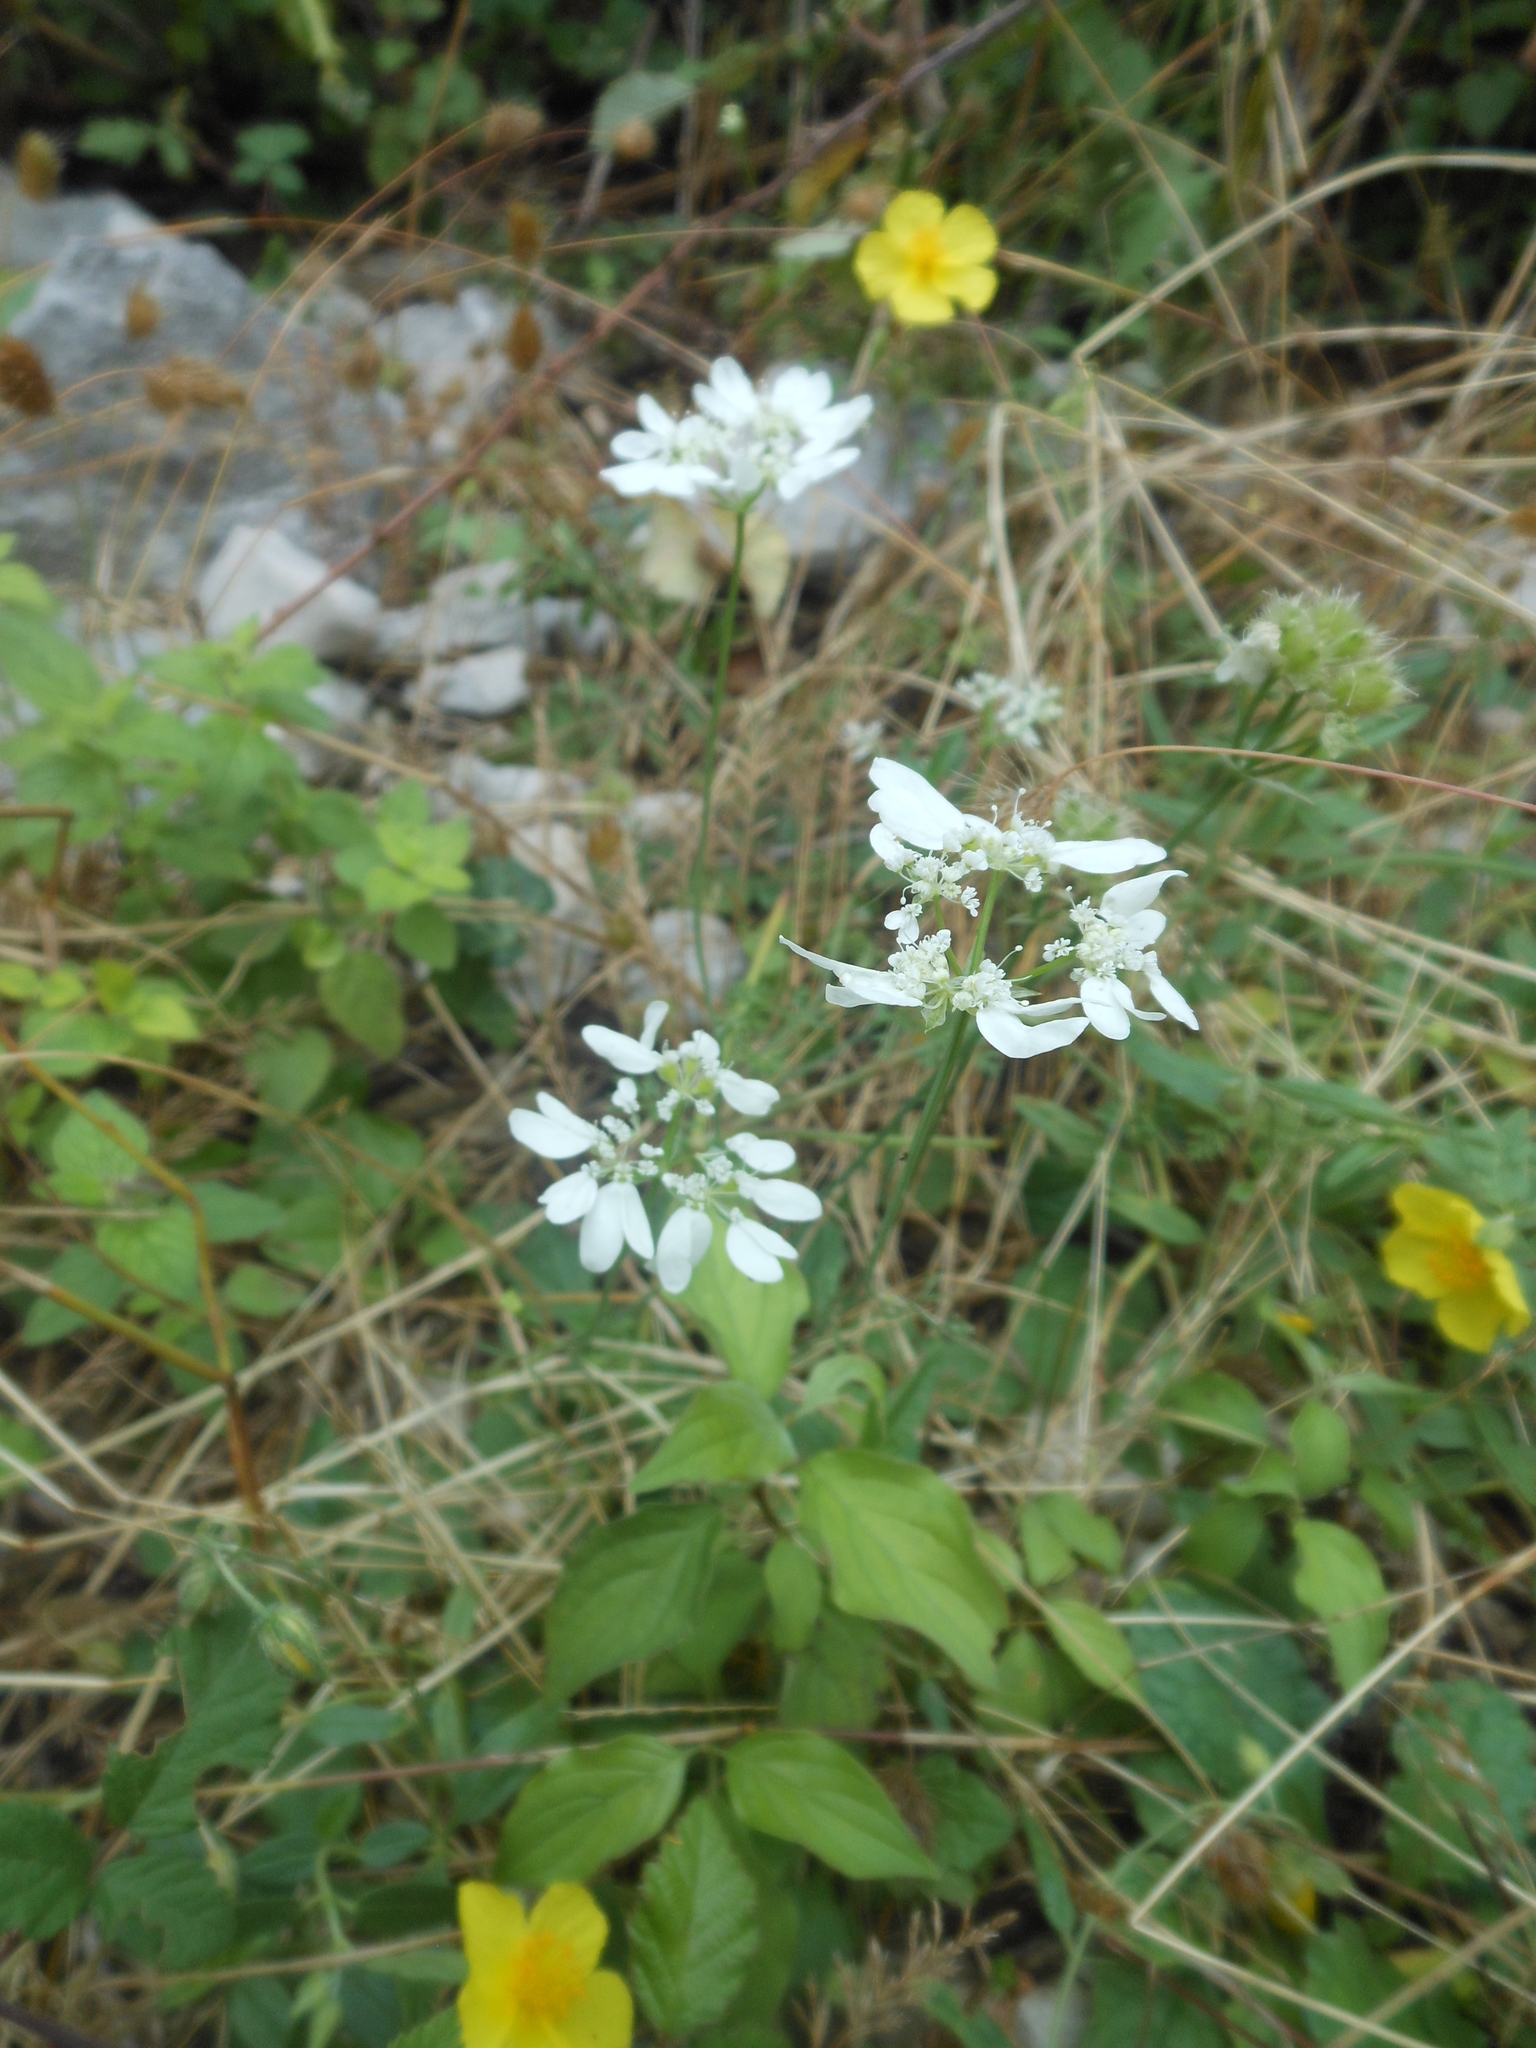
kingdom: Plantae
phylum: Tracheophyta
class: Magnoliopsida
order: Apiales
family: Apiaceae
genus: Orlaya
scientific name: Orlaya grandiflora
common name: White lace flower
